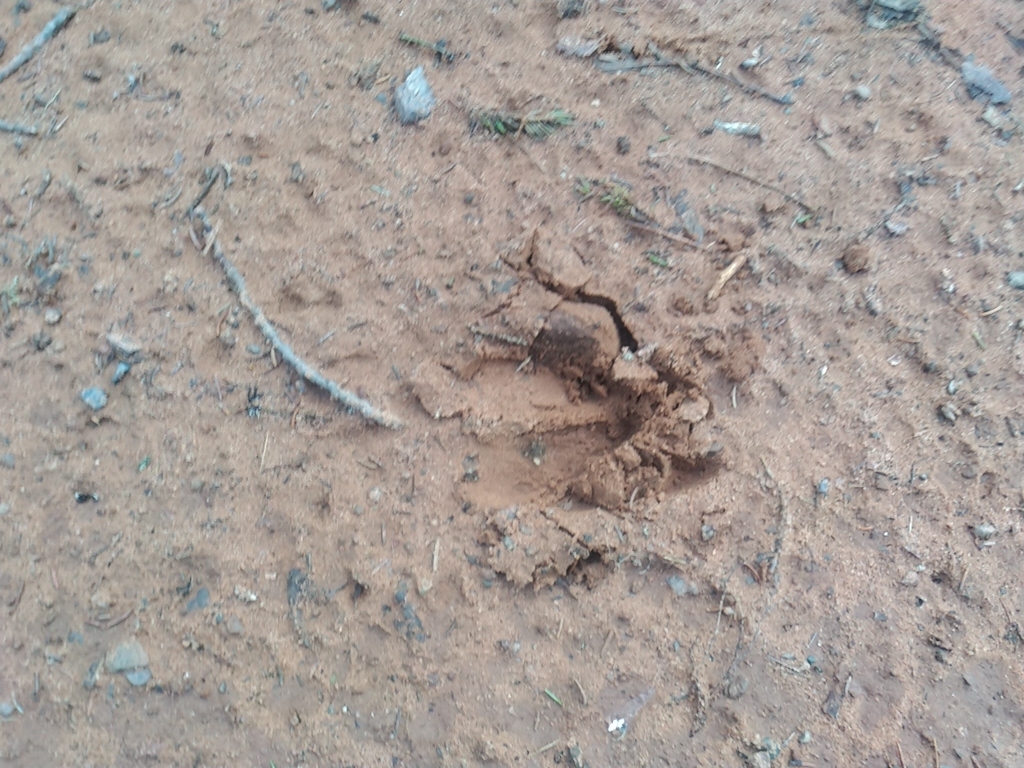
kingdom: Animalia
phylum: Chordata
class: Mammalia
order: Artiodactyla
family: Cervidae
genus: Odocoileus
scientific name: Odocoileus virginianus
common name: White-tailed deer
